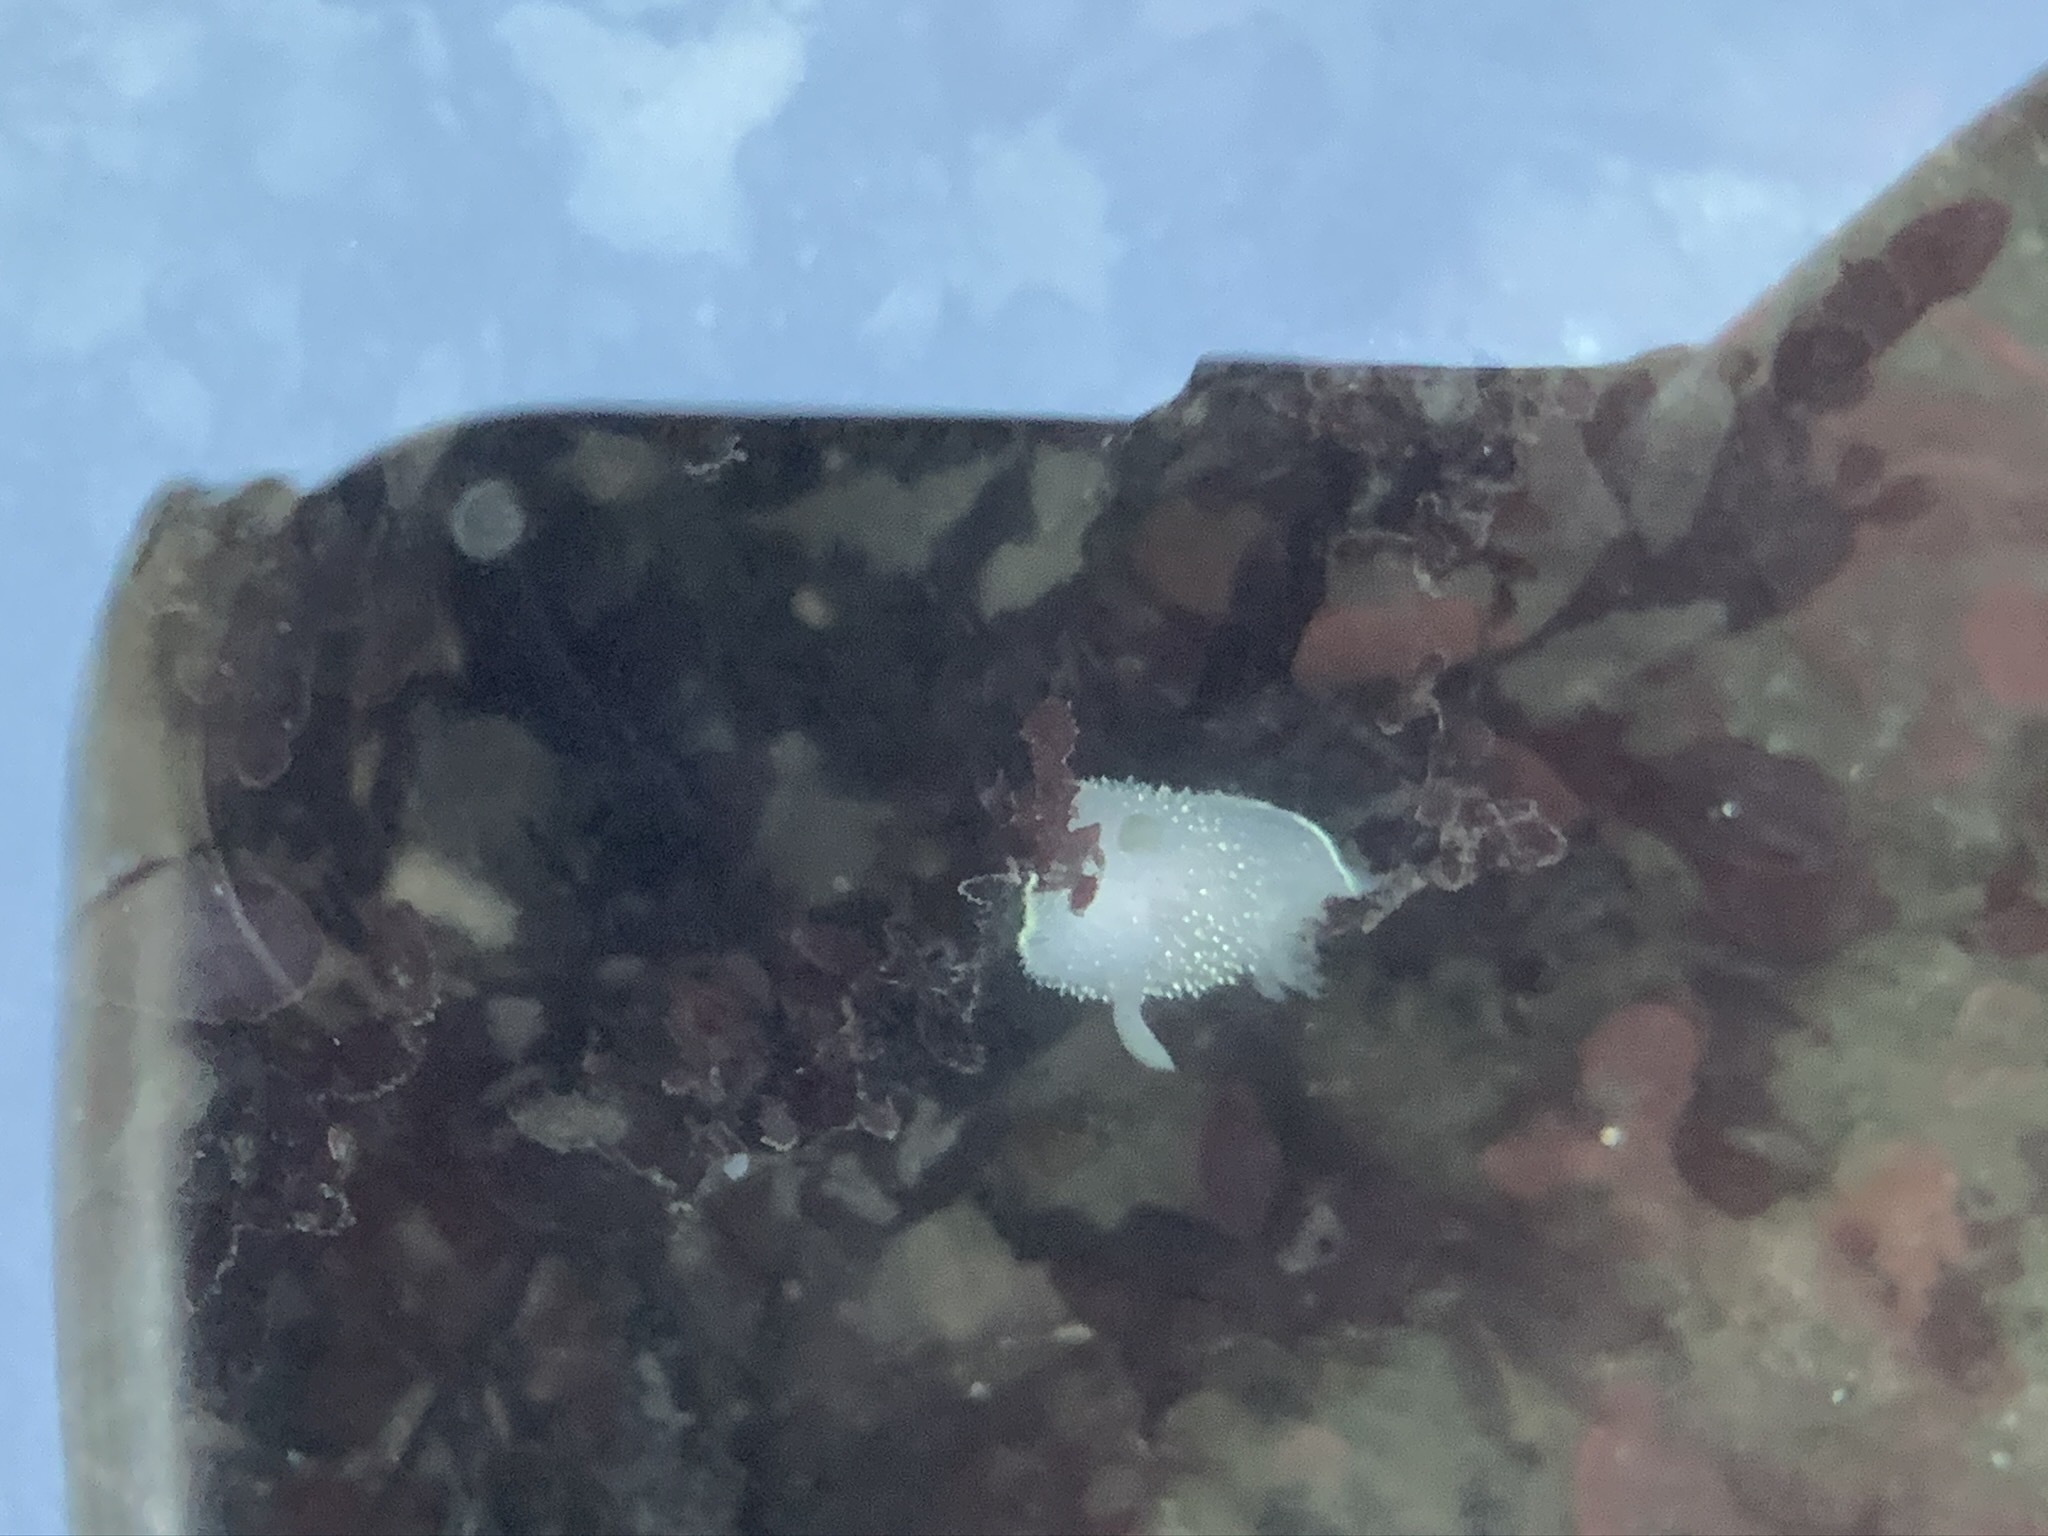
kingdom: Animalia
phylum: Mollusca
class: Gastropoda
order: Nudibranchia
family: Onchidorididae
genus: Acanthodoris
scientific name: Acanthodoris hudsoni
